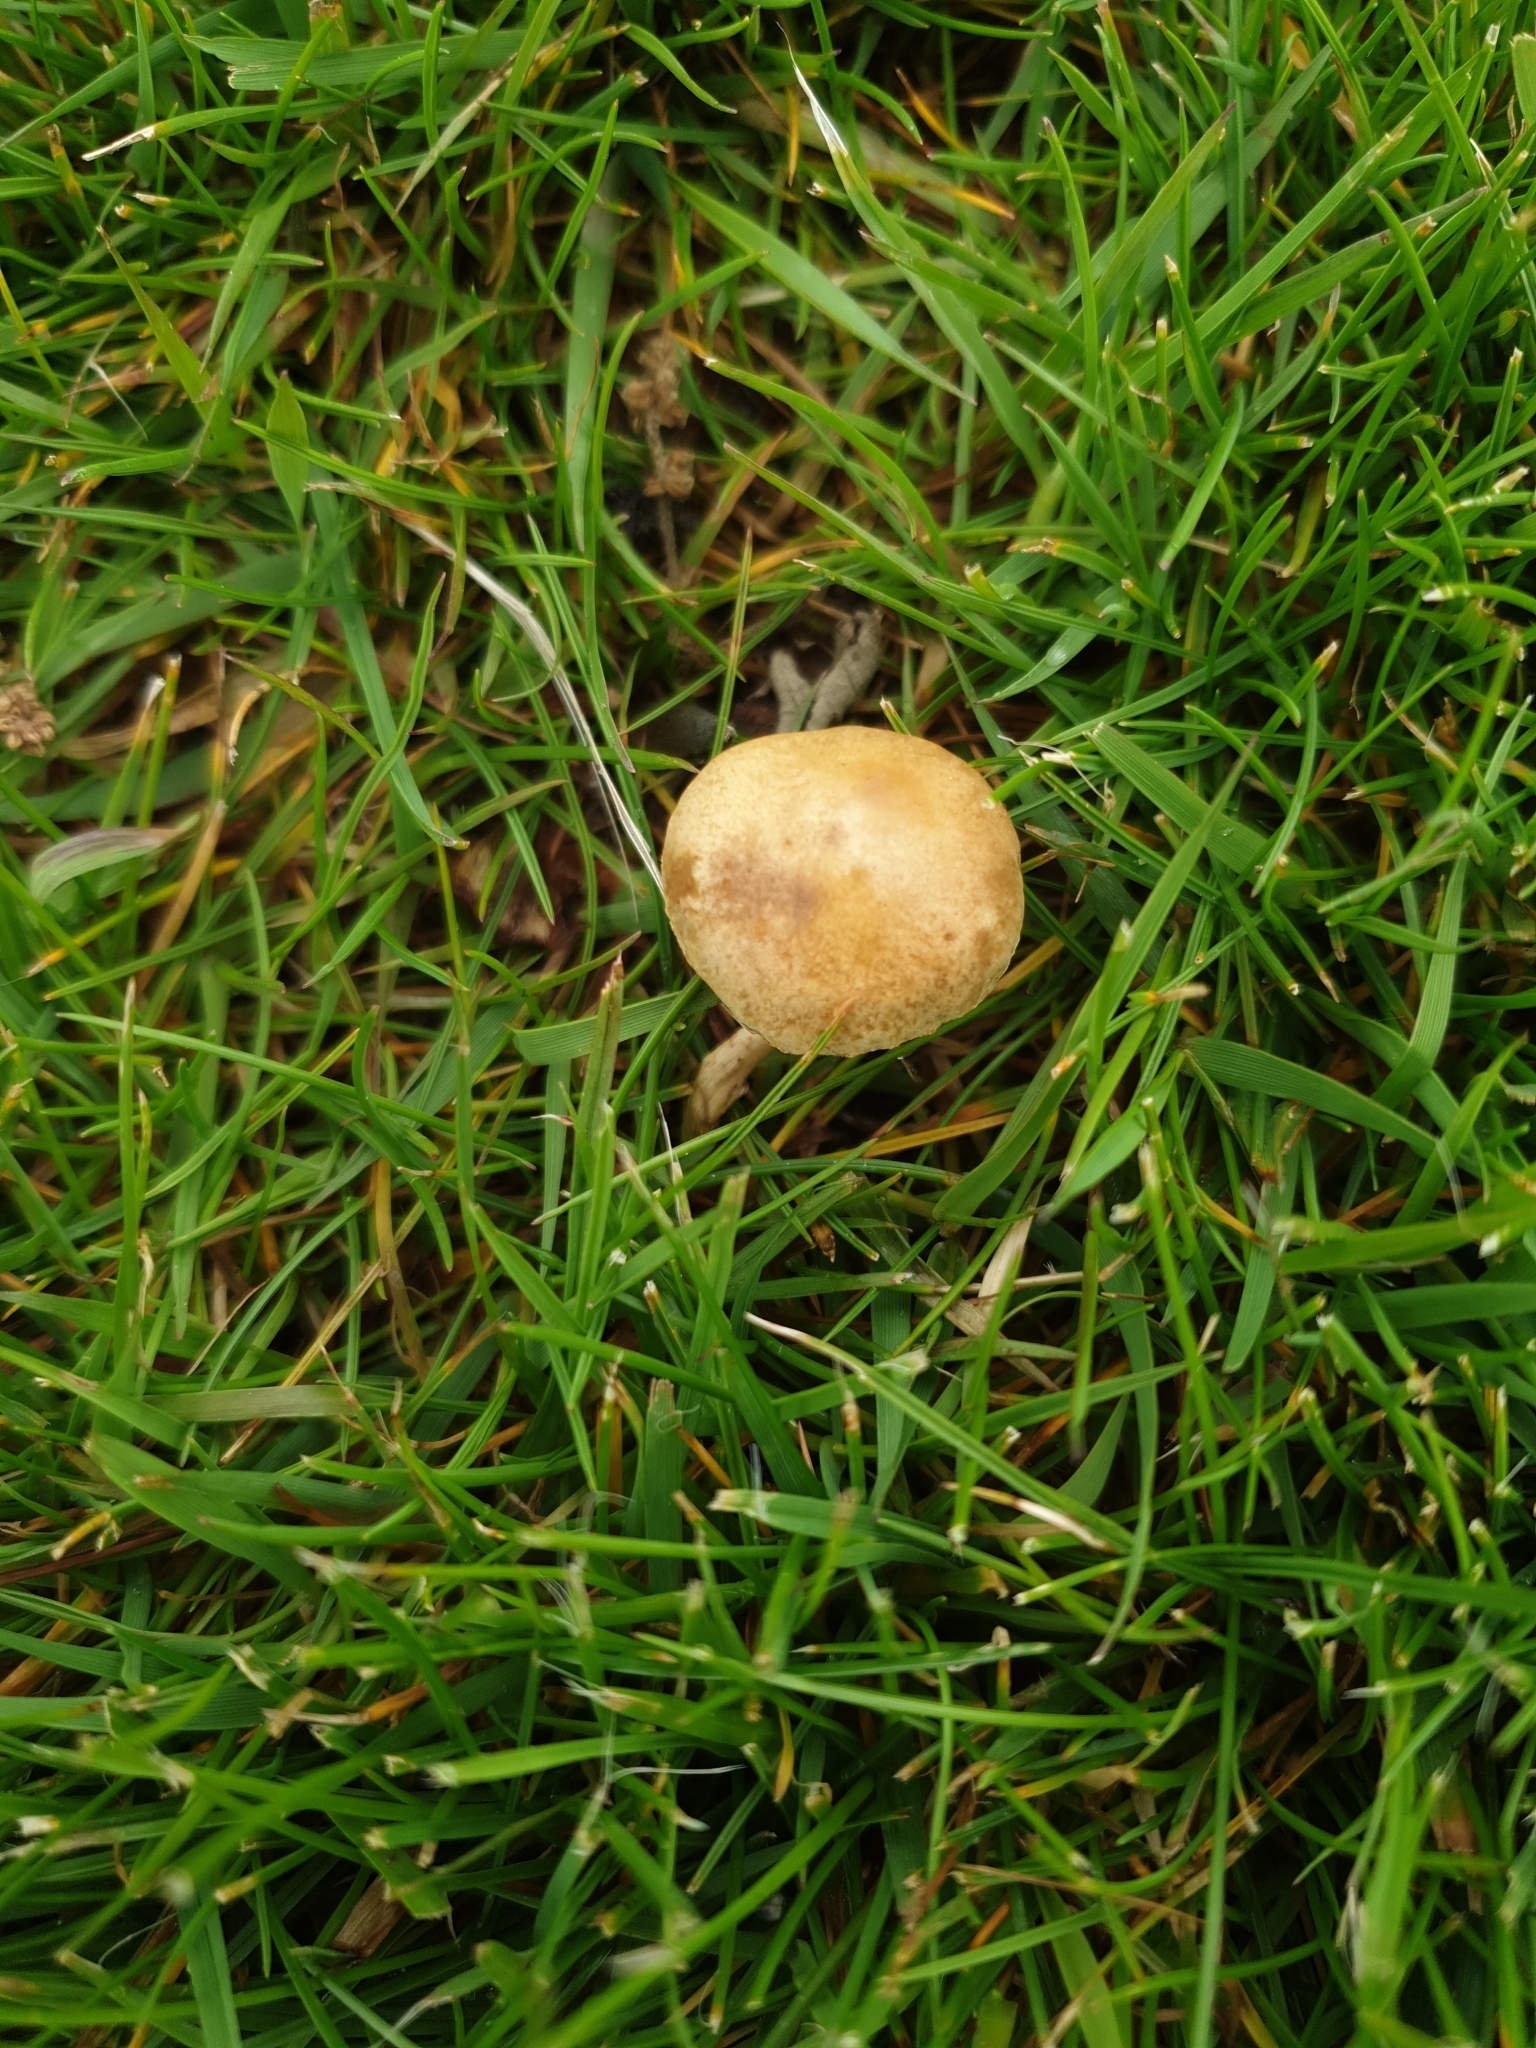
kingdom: Fungi
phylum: Basidiomycota
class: Agaricomycetes
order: Agaricales
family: Strophariaceae
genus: Agrocybe
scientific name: Agrocybe pediades
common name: Common fieldcap
